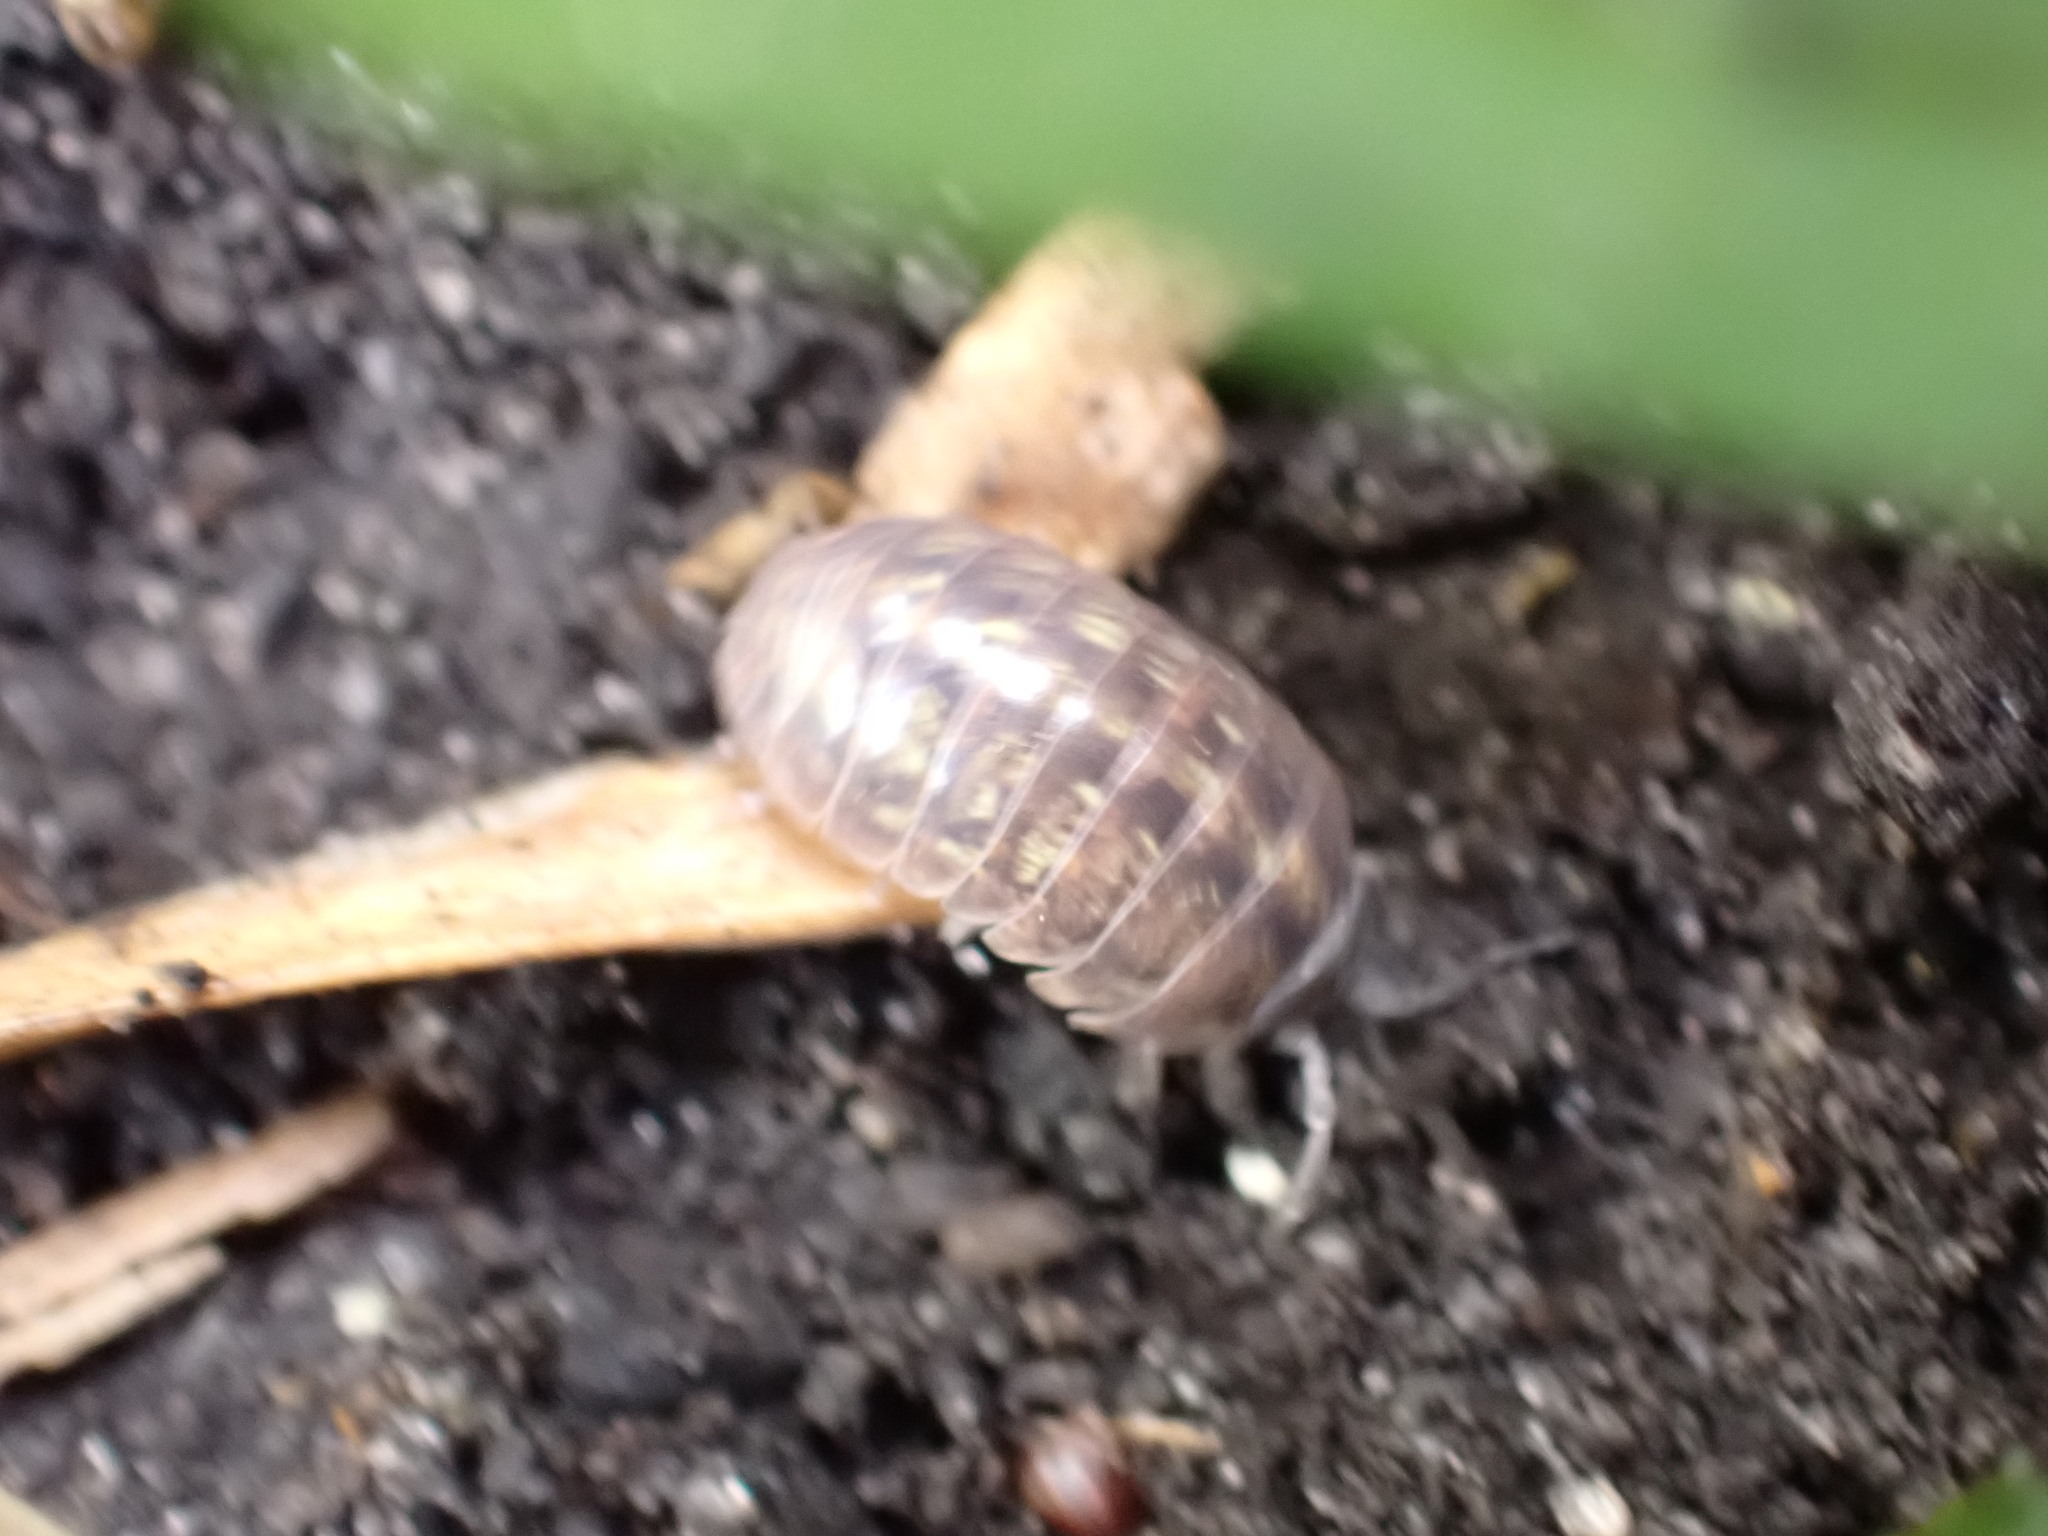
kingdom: Animalia
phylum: Arthropoda
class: Malacostraca
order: Isopoda
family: Armadillidiidae
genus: Armadillidium
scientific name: Armadillidium vulgare
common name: Common pill woodlouse
